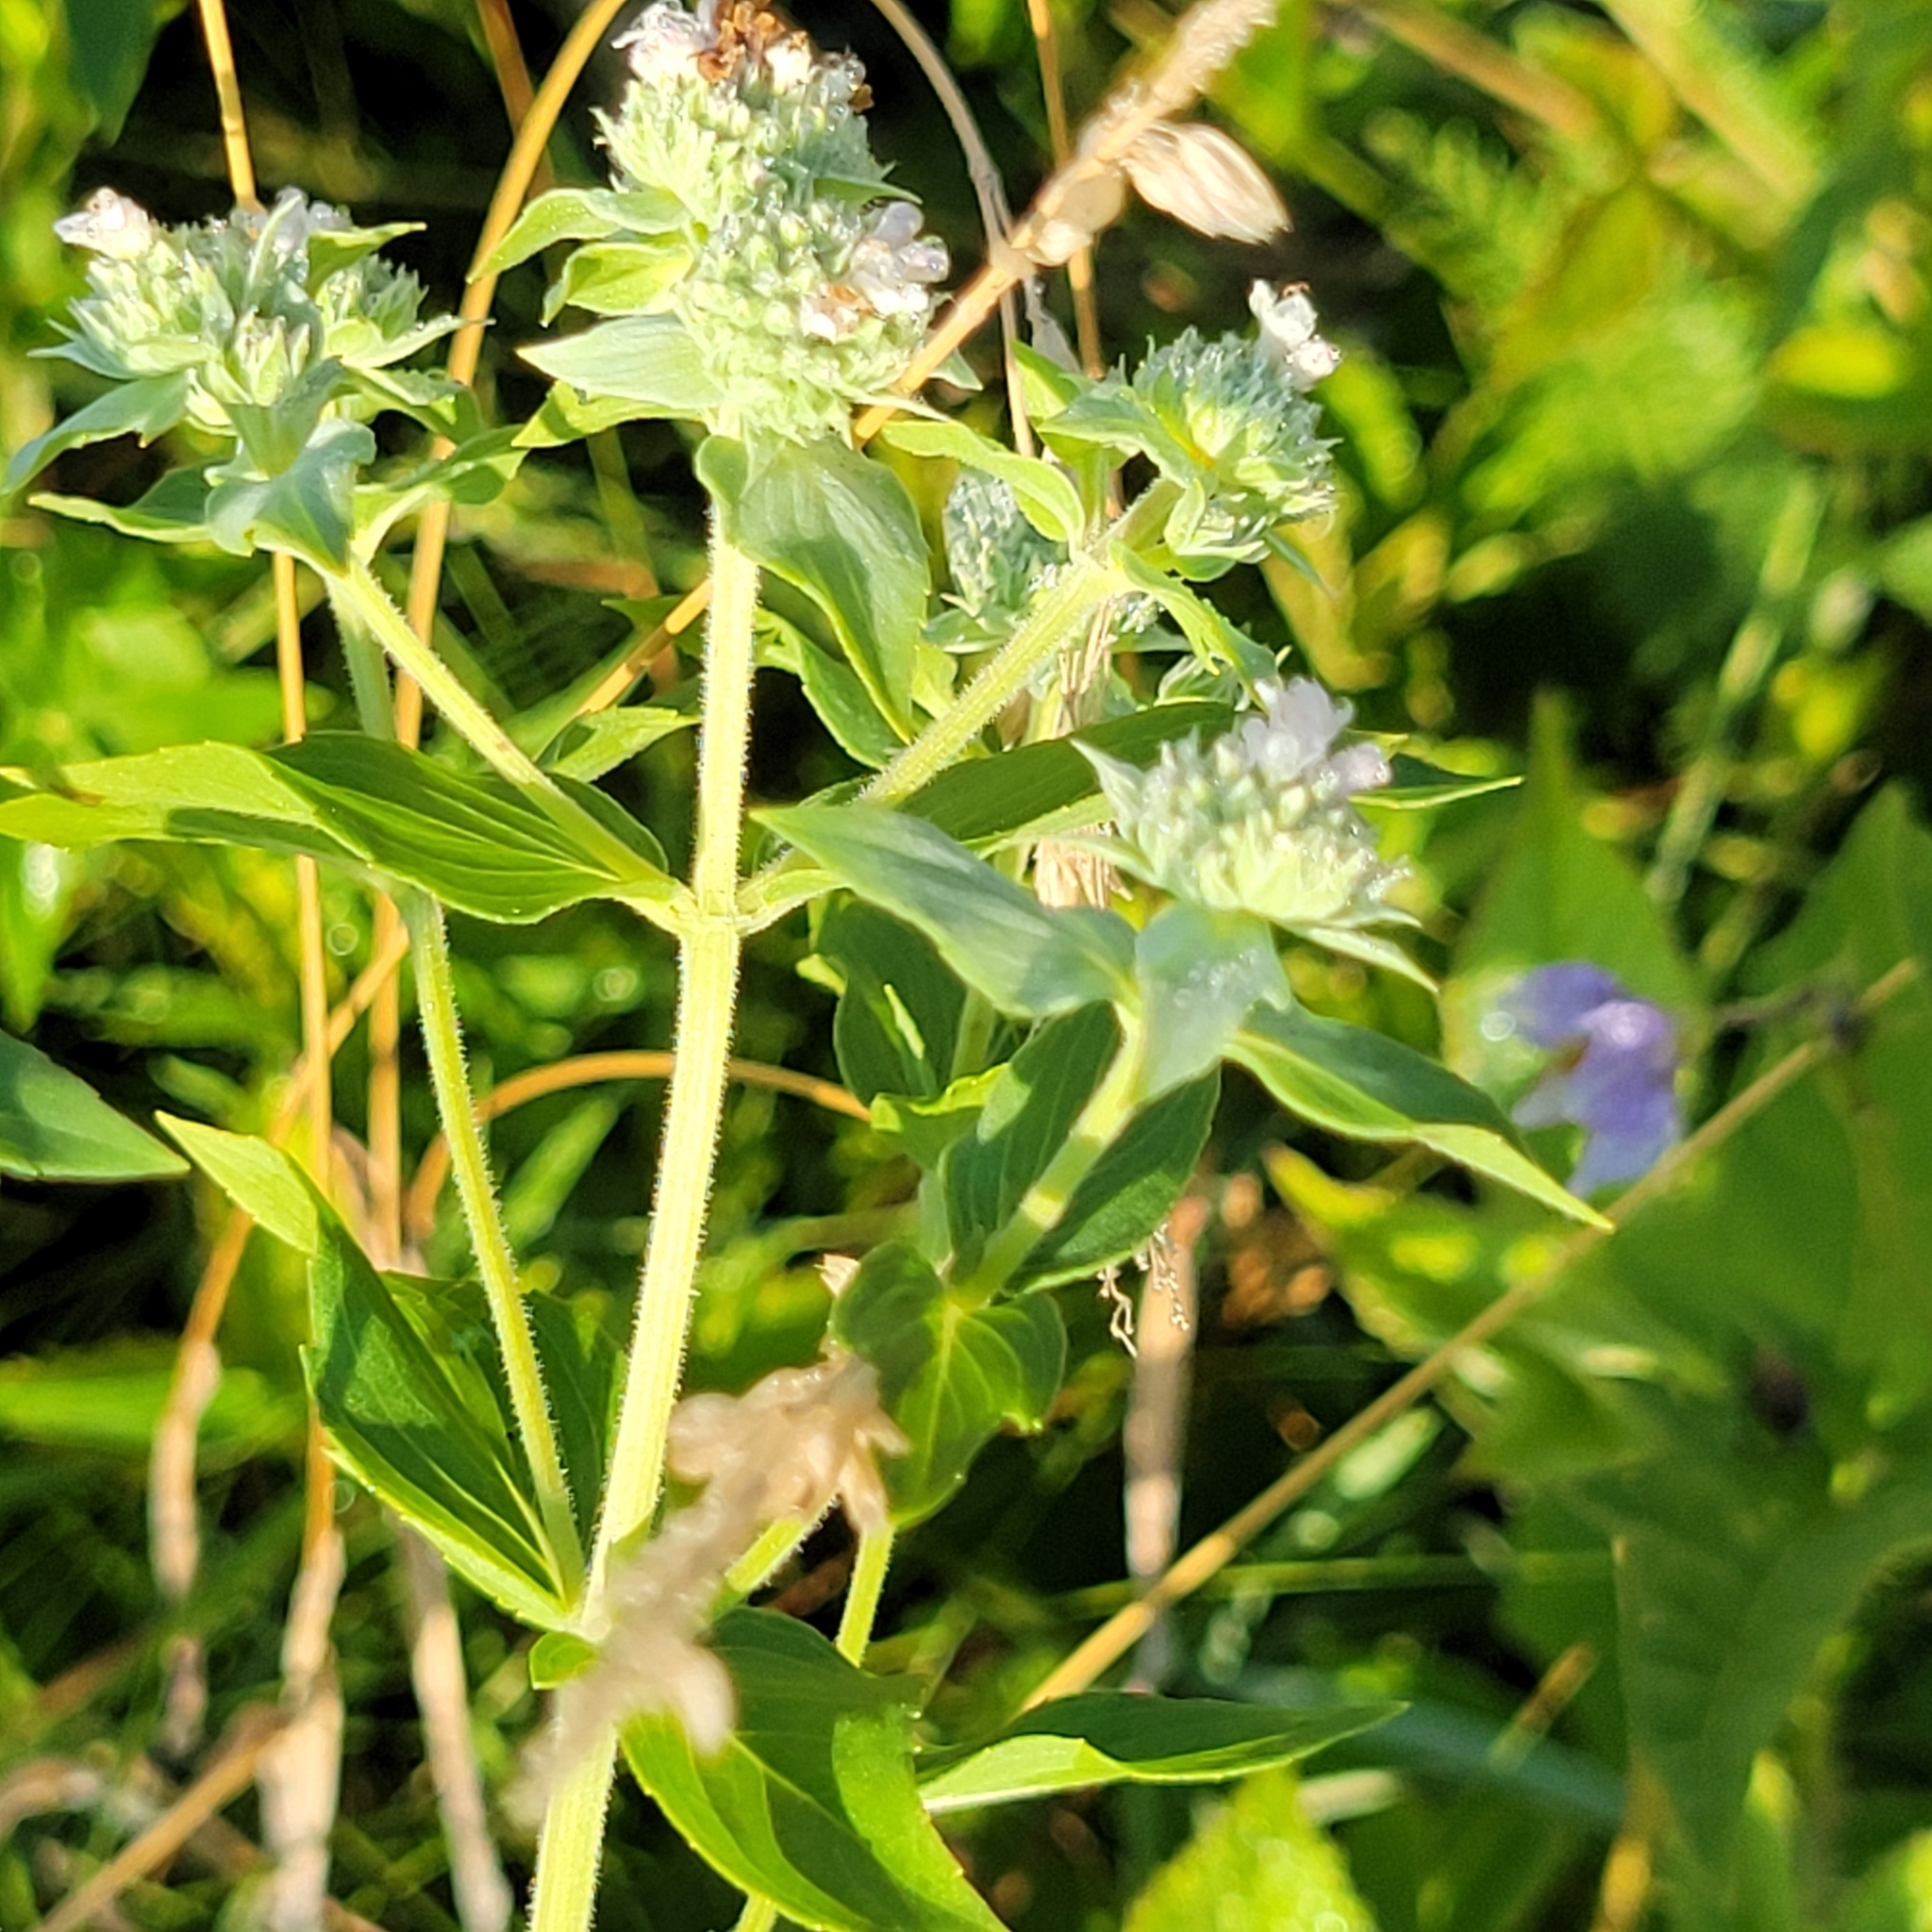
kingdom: Plantae
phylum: Tracheophyta
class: Magnoliopsida
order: Lamiales
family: Lamiaceae
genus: Pycnanthemum
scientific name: Pycnanthemum muticum
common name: Blunt mountain-mint
